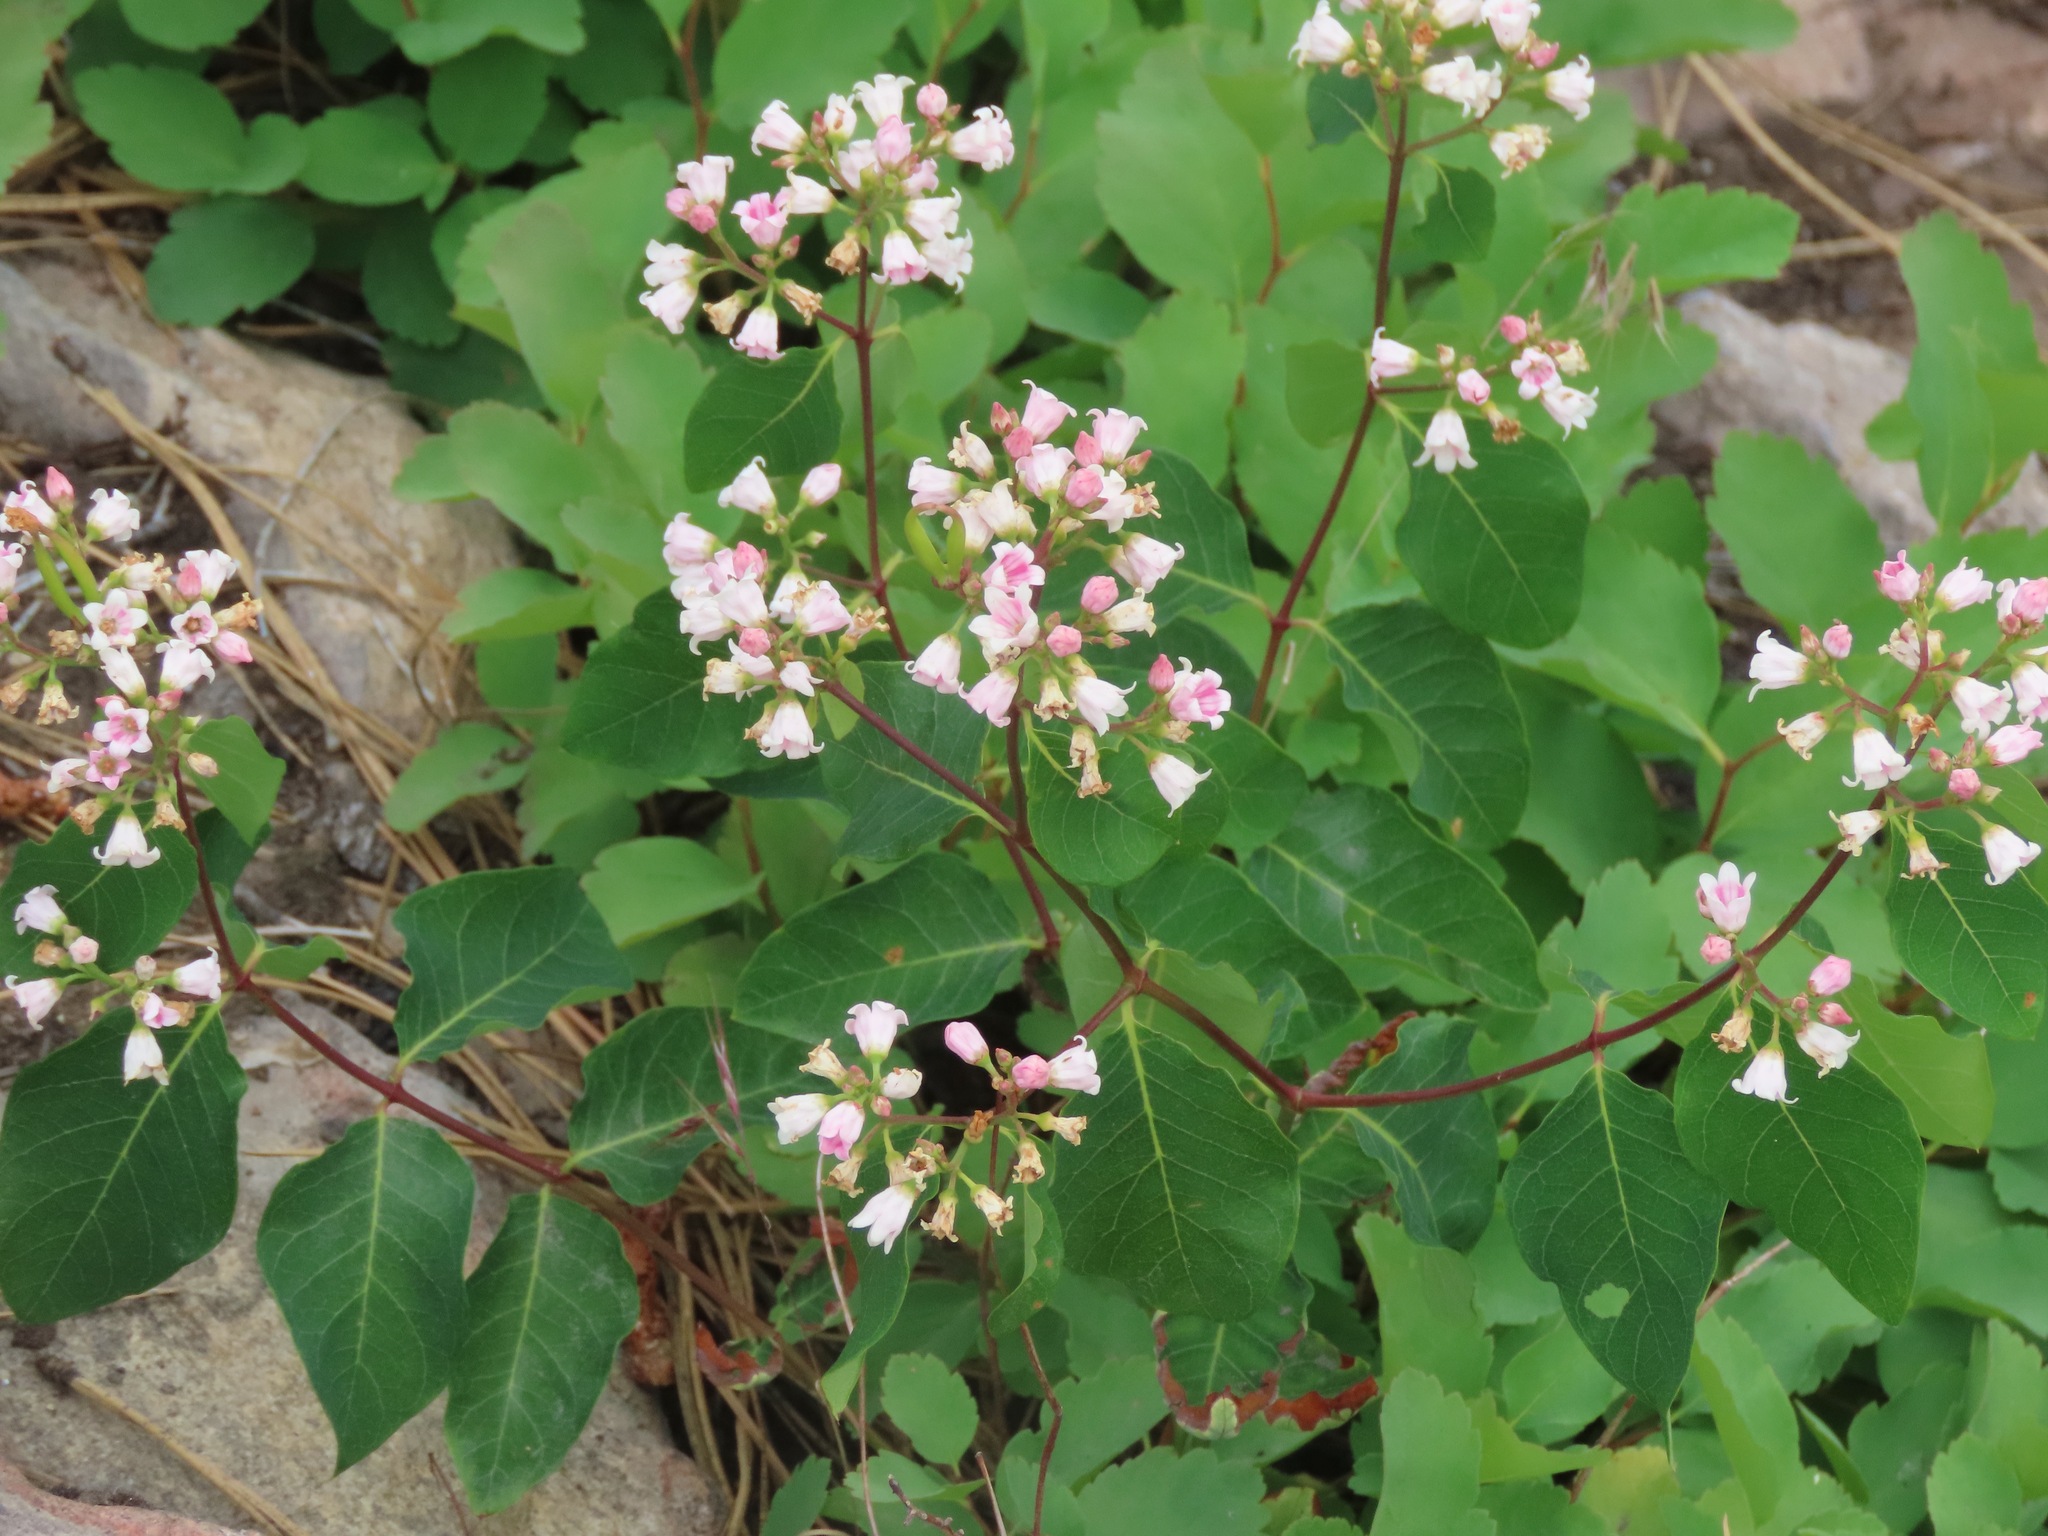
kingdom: Plantae
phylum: Tracheophyta
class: Magnoliopsida
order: Gentianales
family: Apocynaceae
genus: Apocynum
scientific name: Apocynum androsaemifolium
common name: Spreading dogbane
